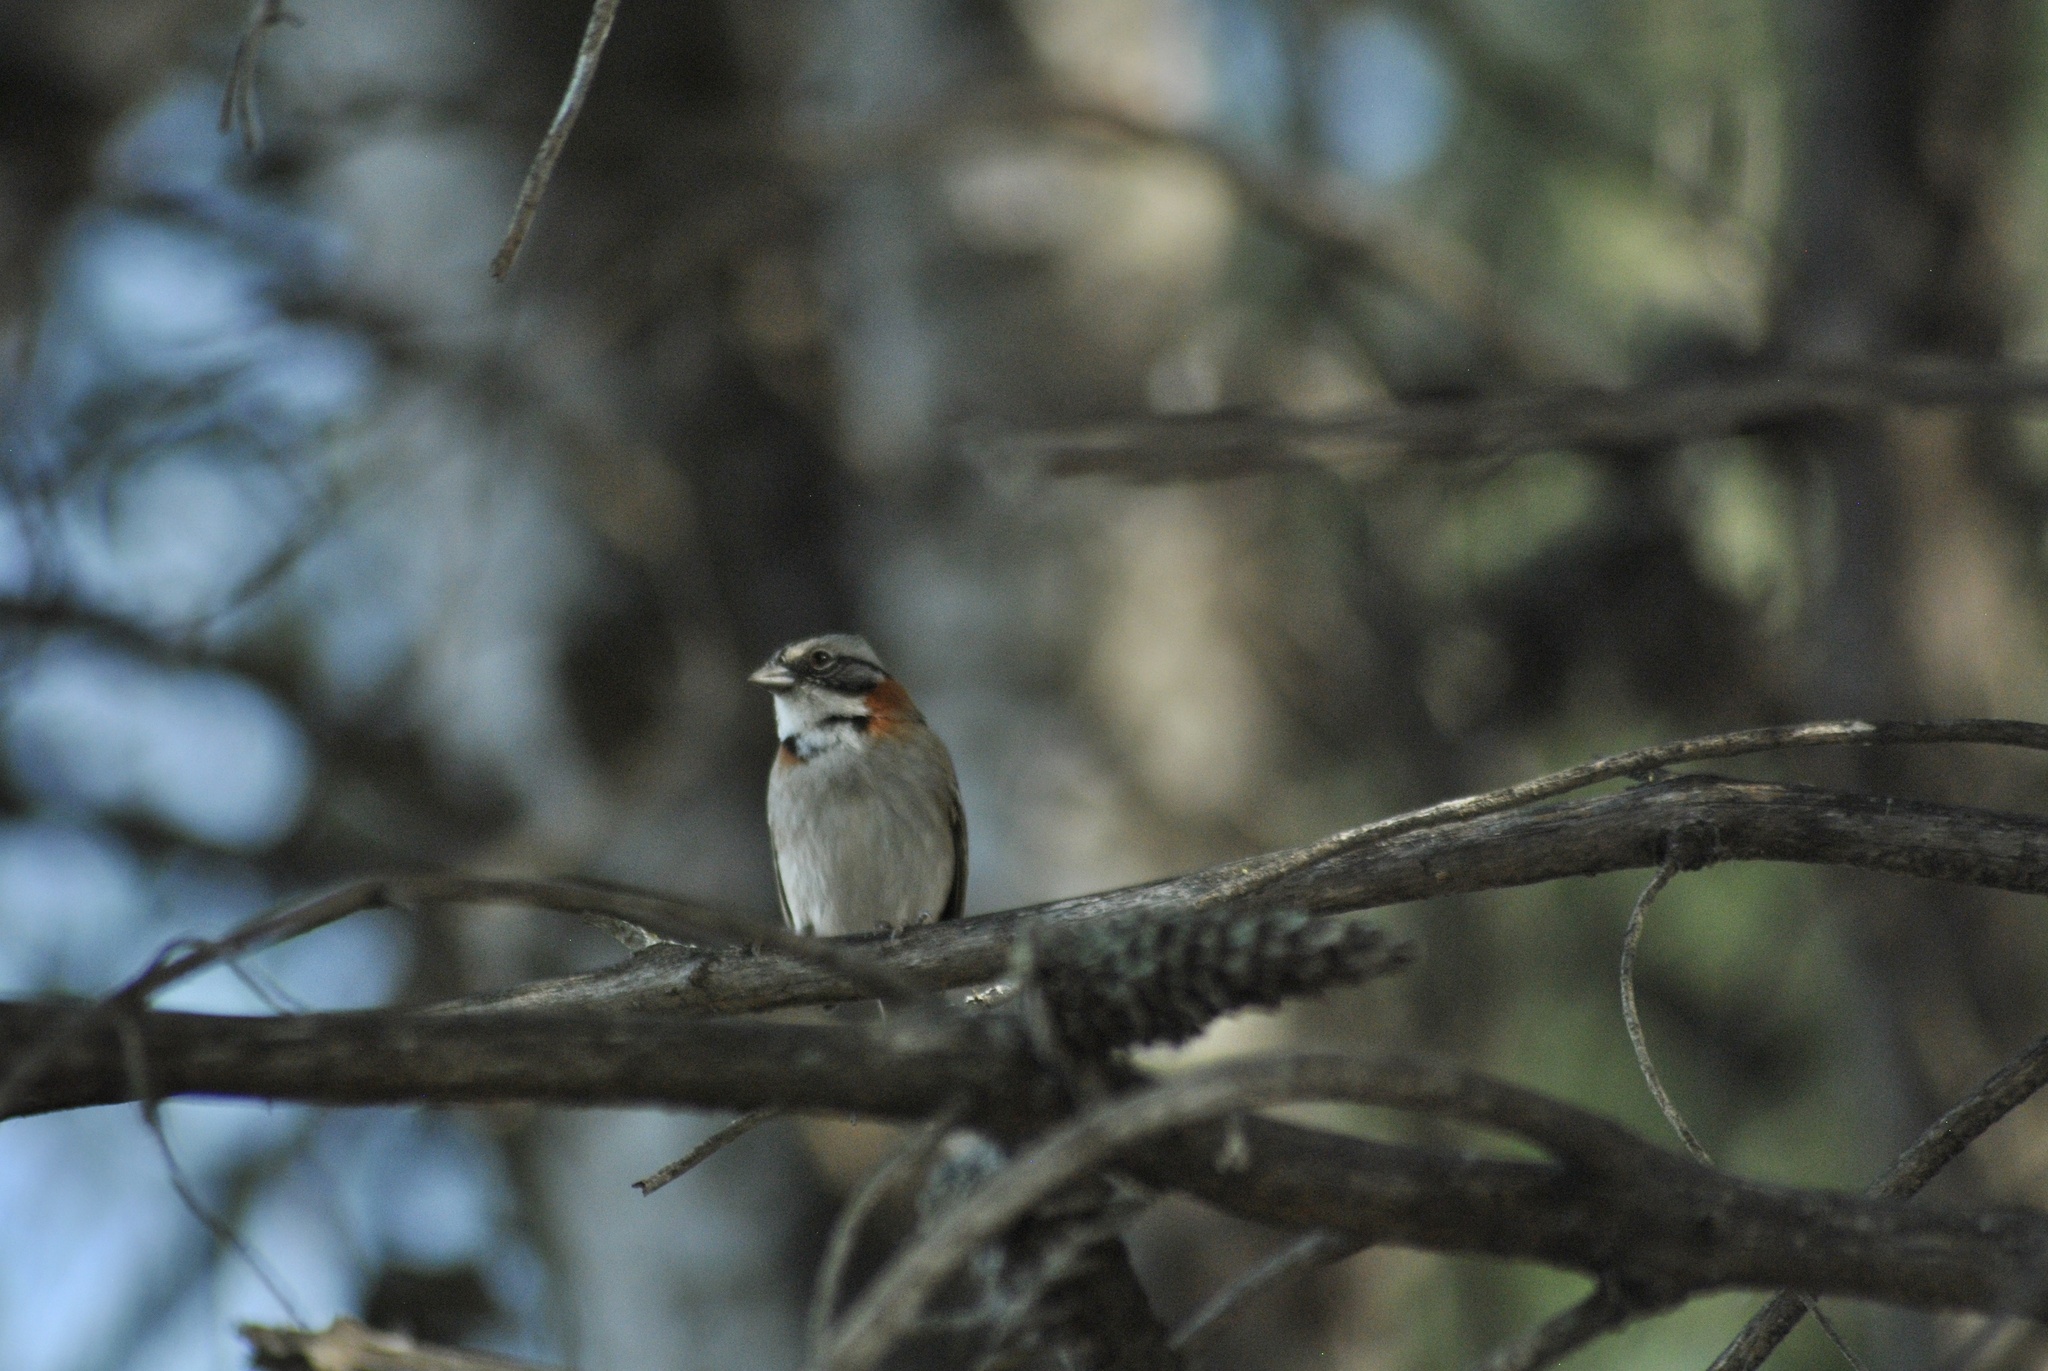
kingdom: Animalia
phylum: Chordata
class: Aves
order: Passeriformes
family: Passerellidae
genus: Zonotrichia
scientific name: Zonotrichia capensis
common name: Rufous-collared sparrow
